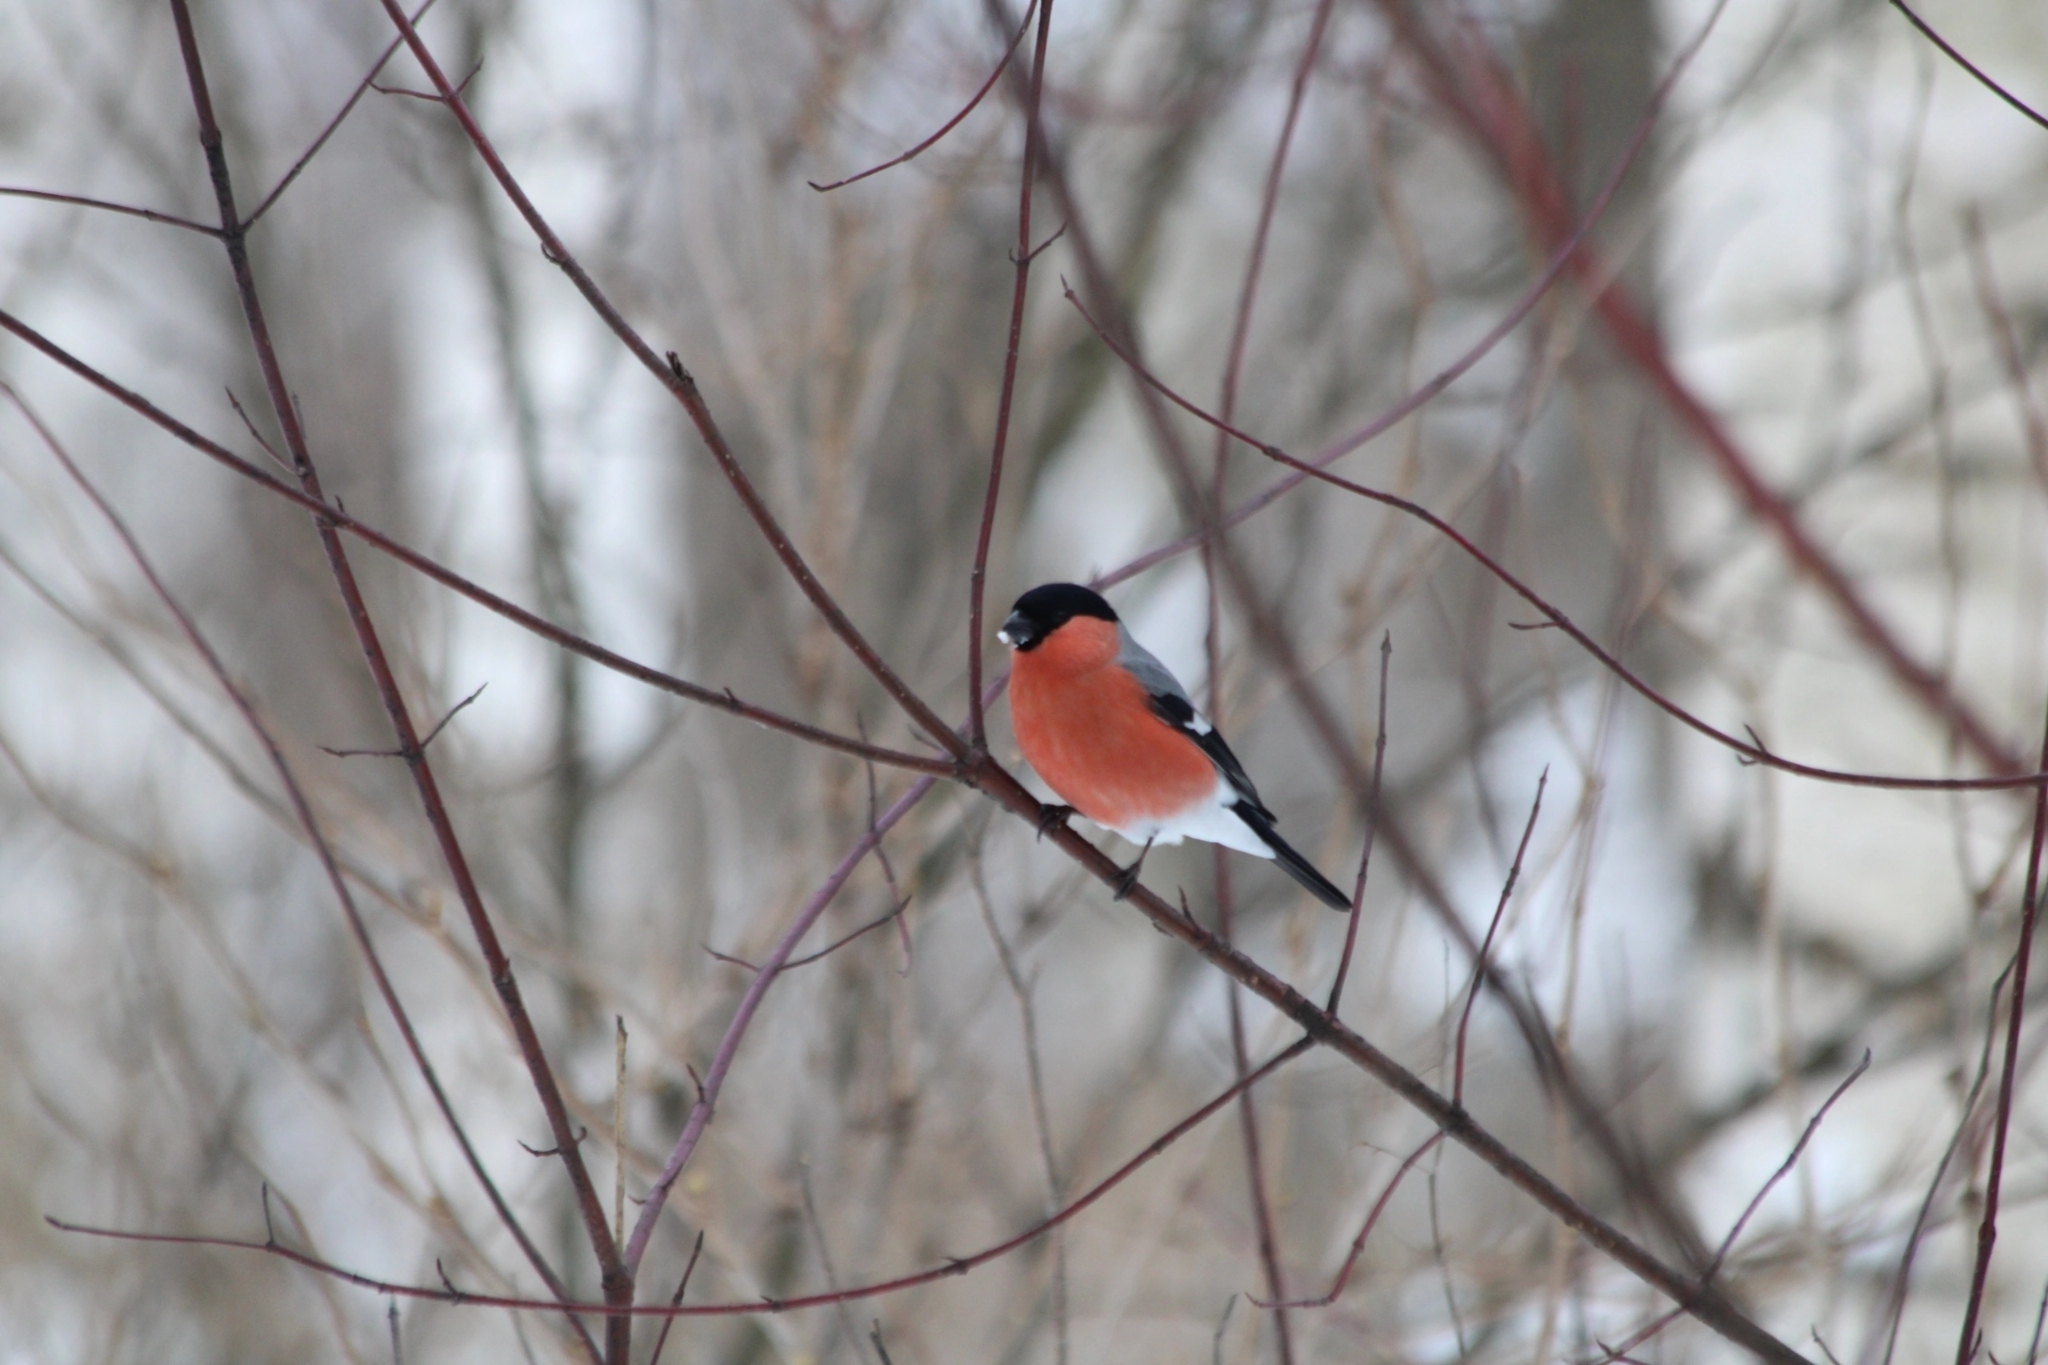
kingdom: Animalia
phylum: Chordata
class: Aves
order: Passeriformes
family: Fringillidae
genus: Pyrrhula
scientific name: Pyrrhula pyrrhula
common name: Eurasian bullfinch
